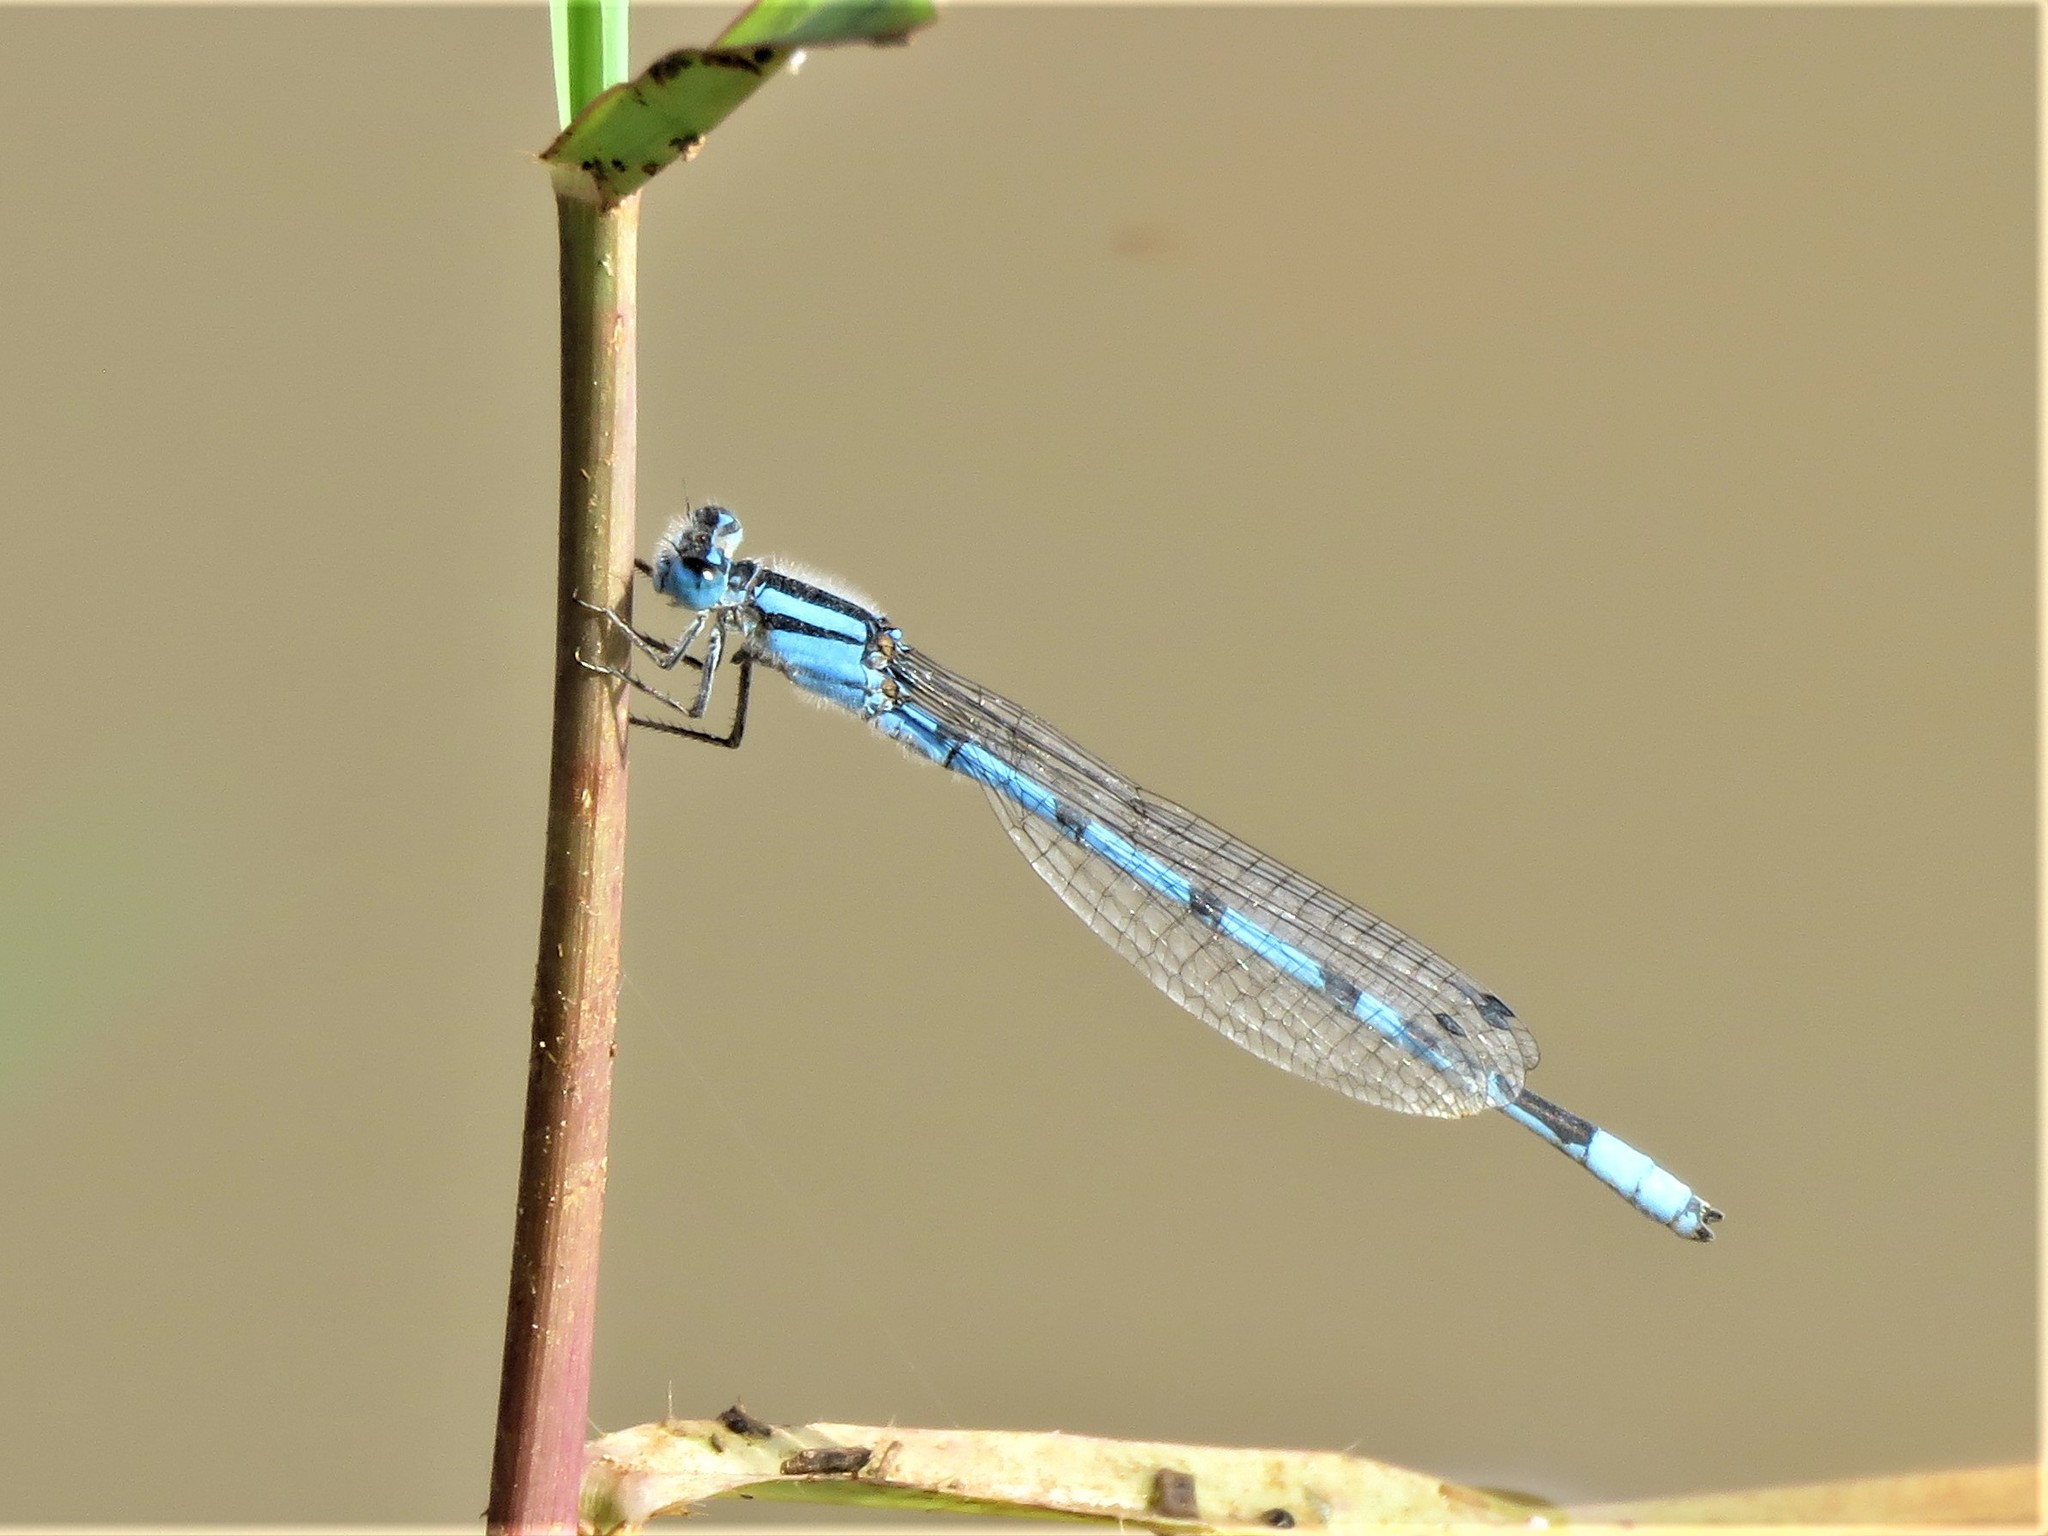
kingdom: Animalia
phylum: Arthropoda
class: Insecta
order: Odonata
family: Coenagrionidae
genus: Enallagma
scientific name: Enallagma civile
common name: Damselfly
